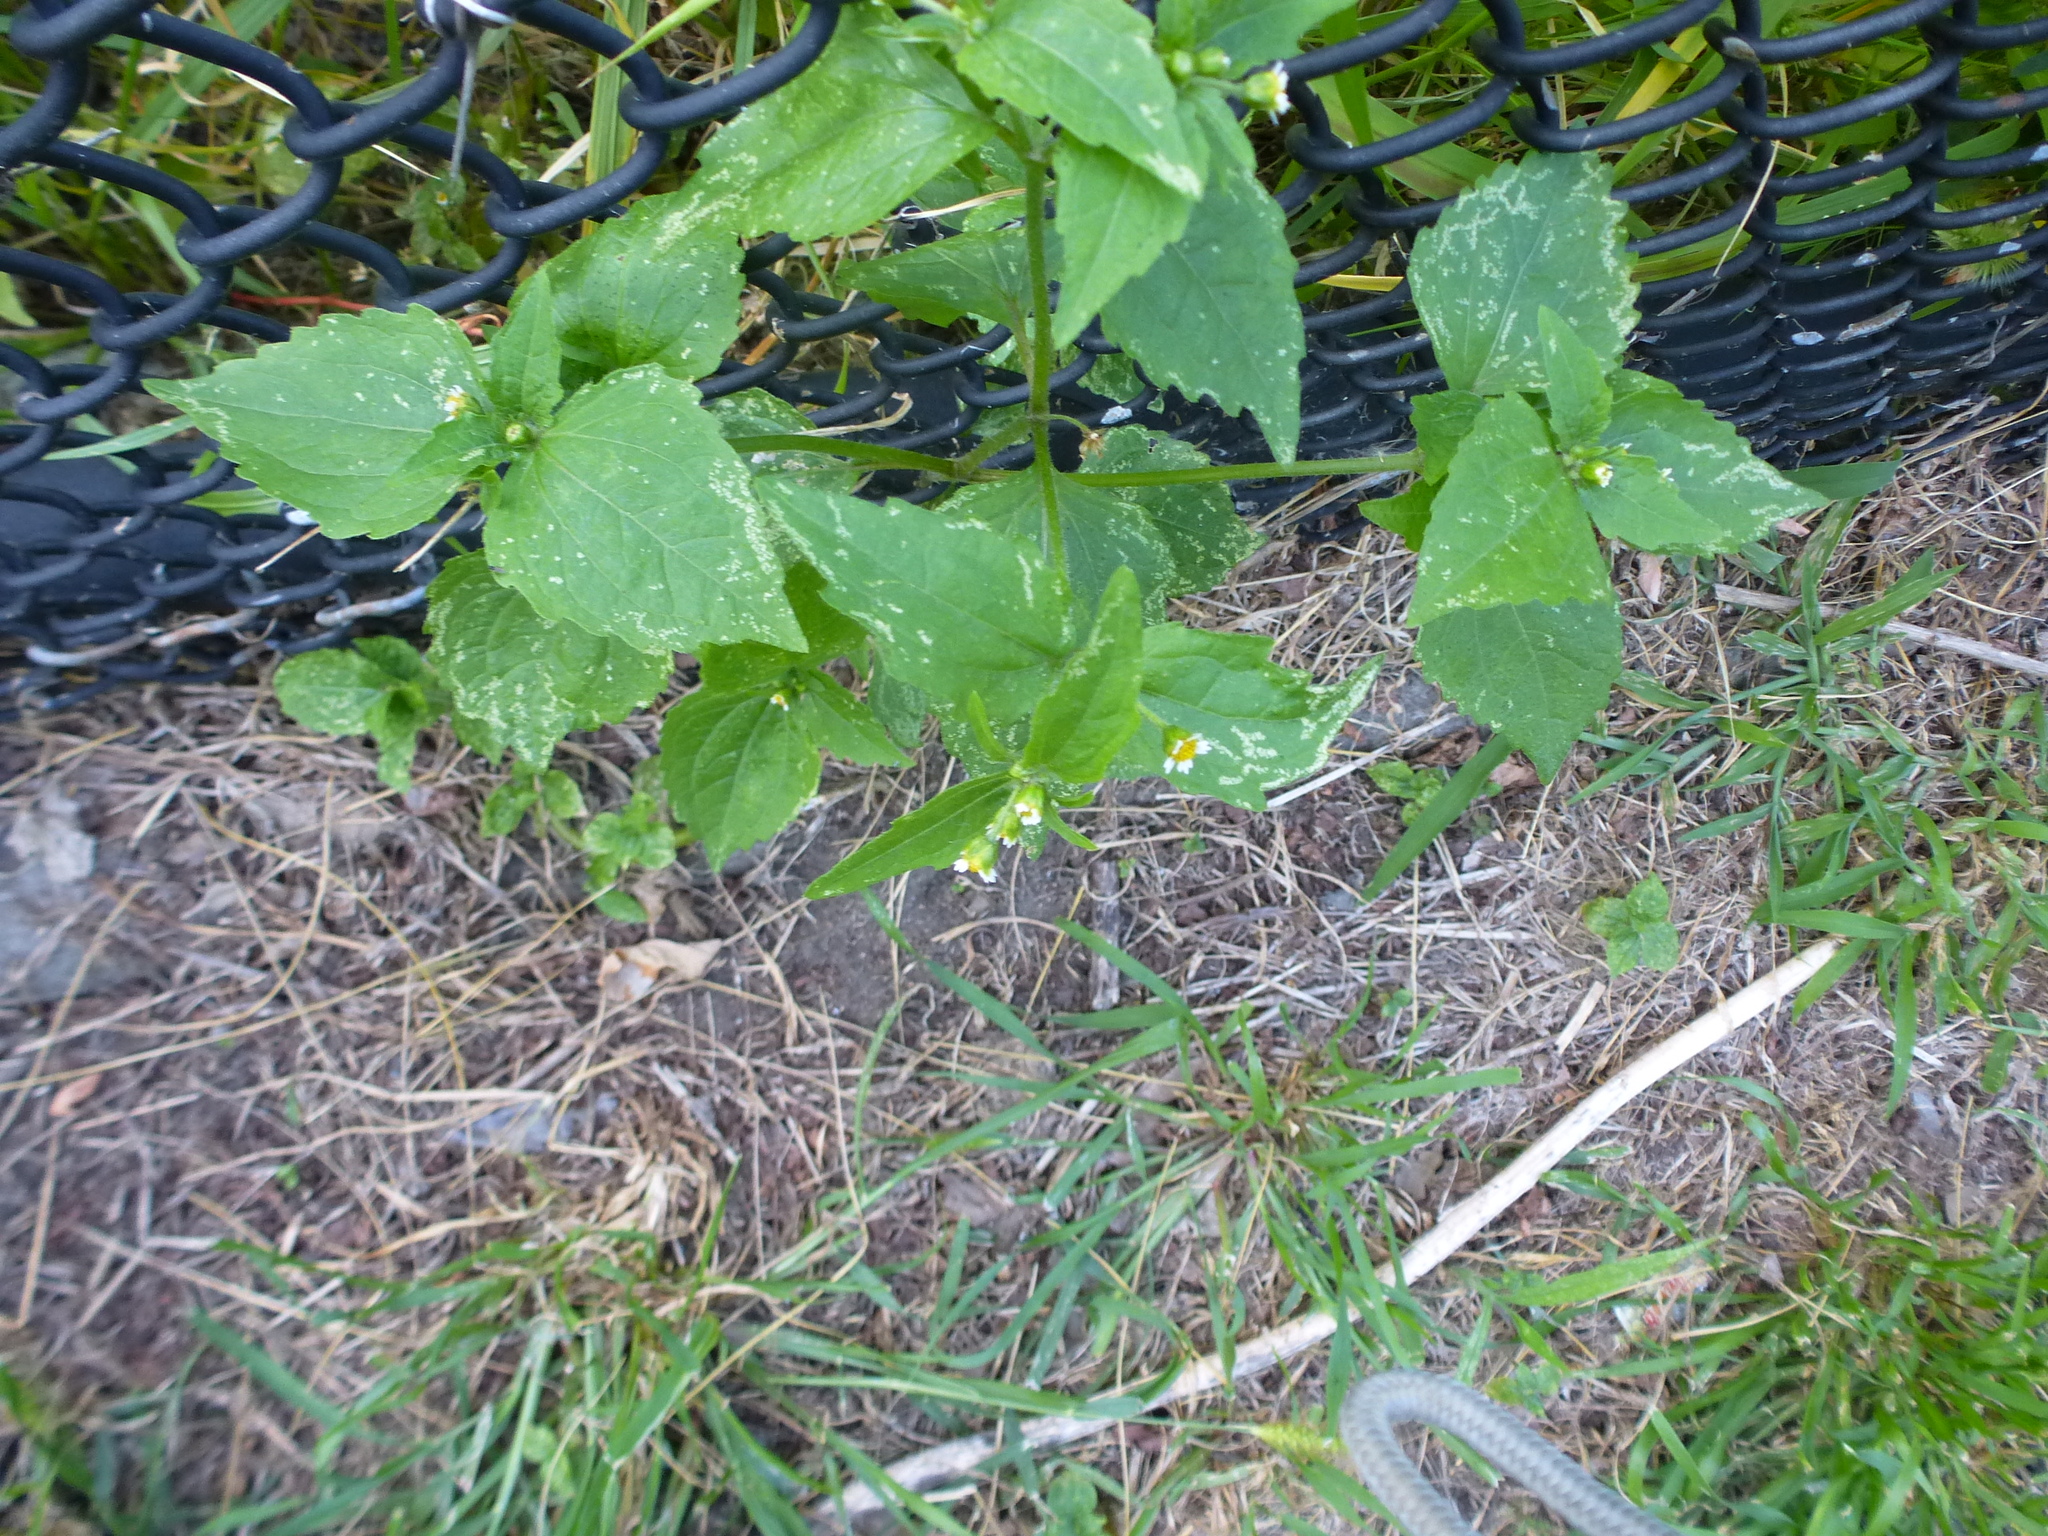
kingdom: Plantae
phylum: Tracheophyta
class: Magnoliopsida
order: Asterales
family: Asteraceae
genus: Galinsoga
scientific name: Galinsoga quadriradiata
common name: Shaggy soldier
